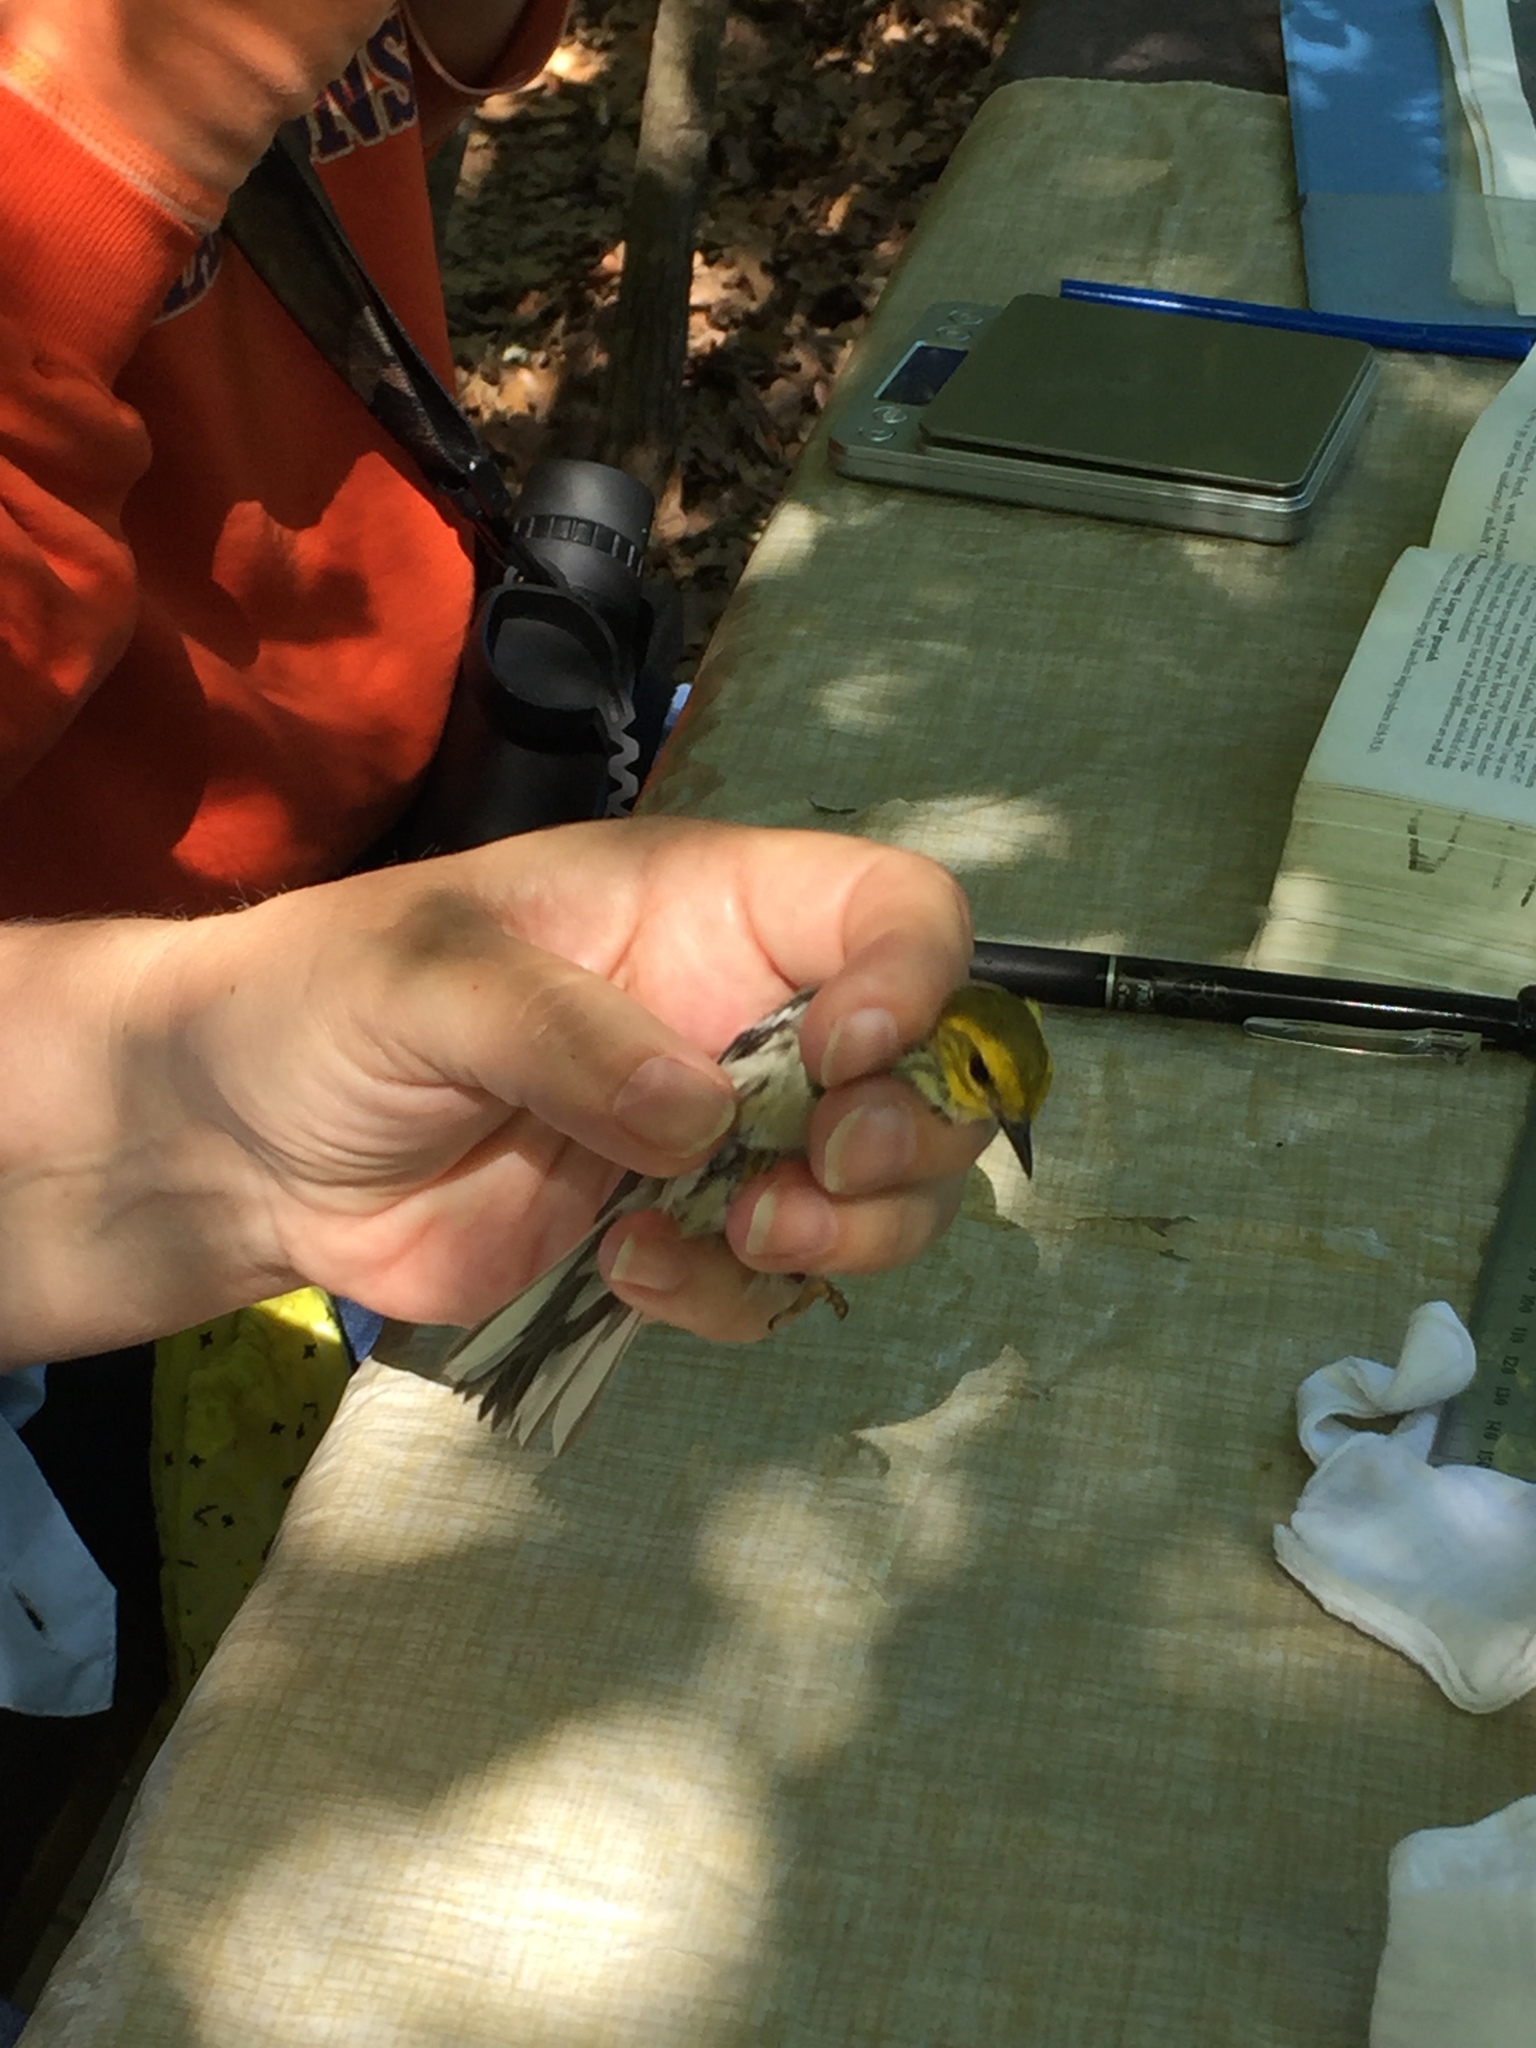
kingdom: Animalia
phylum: Chordata
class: Aves
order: Passeriformes
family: Parulidae
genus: Setophaga
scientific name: Setophaga virens
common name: Black-throated green warbler
